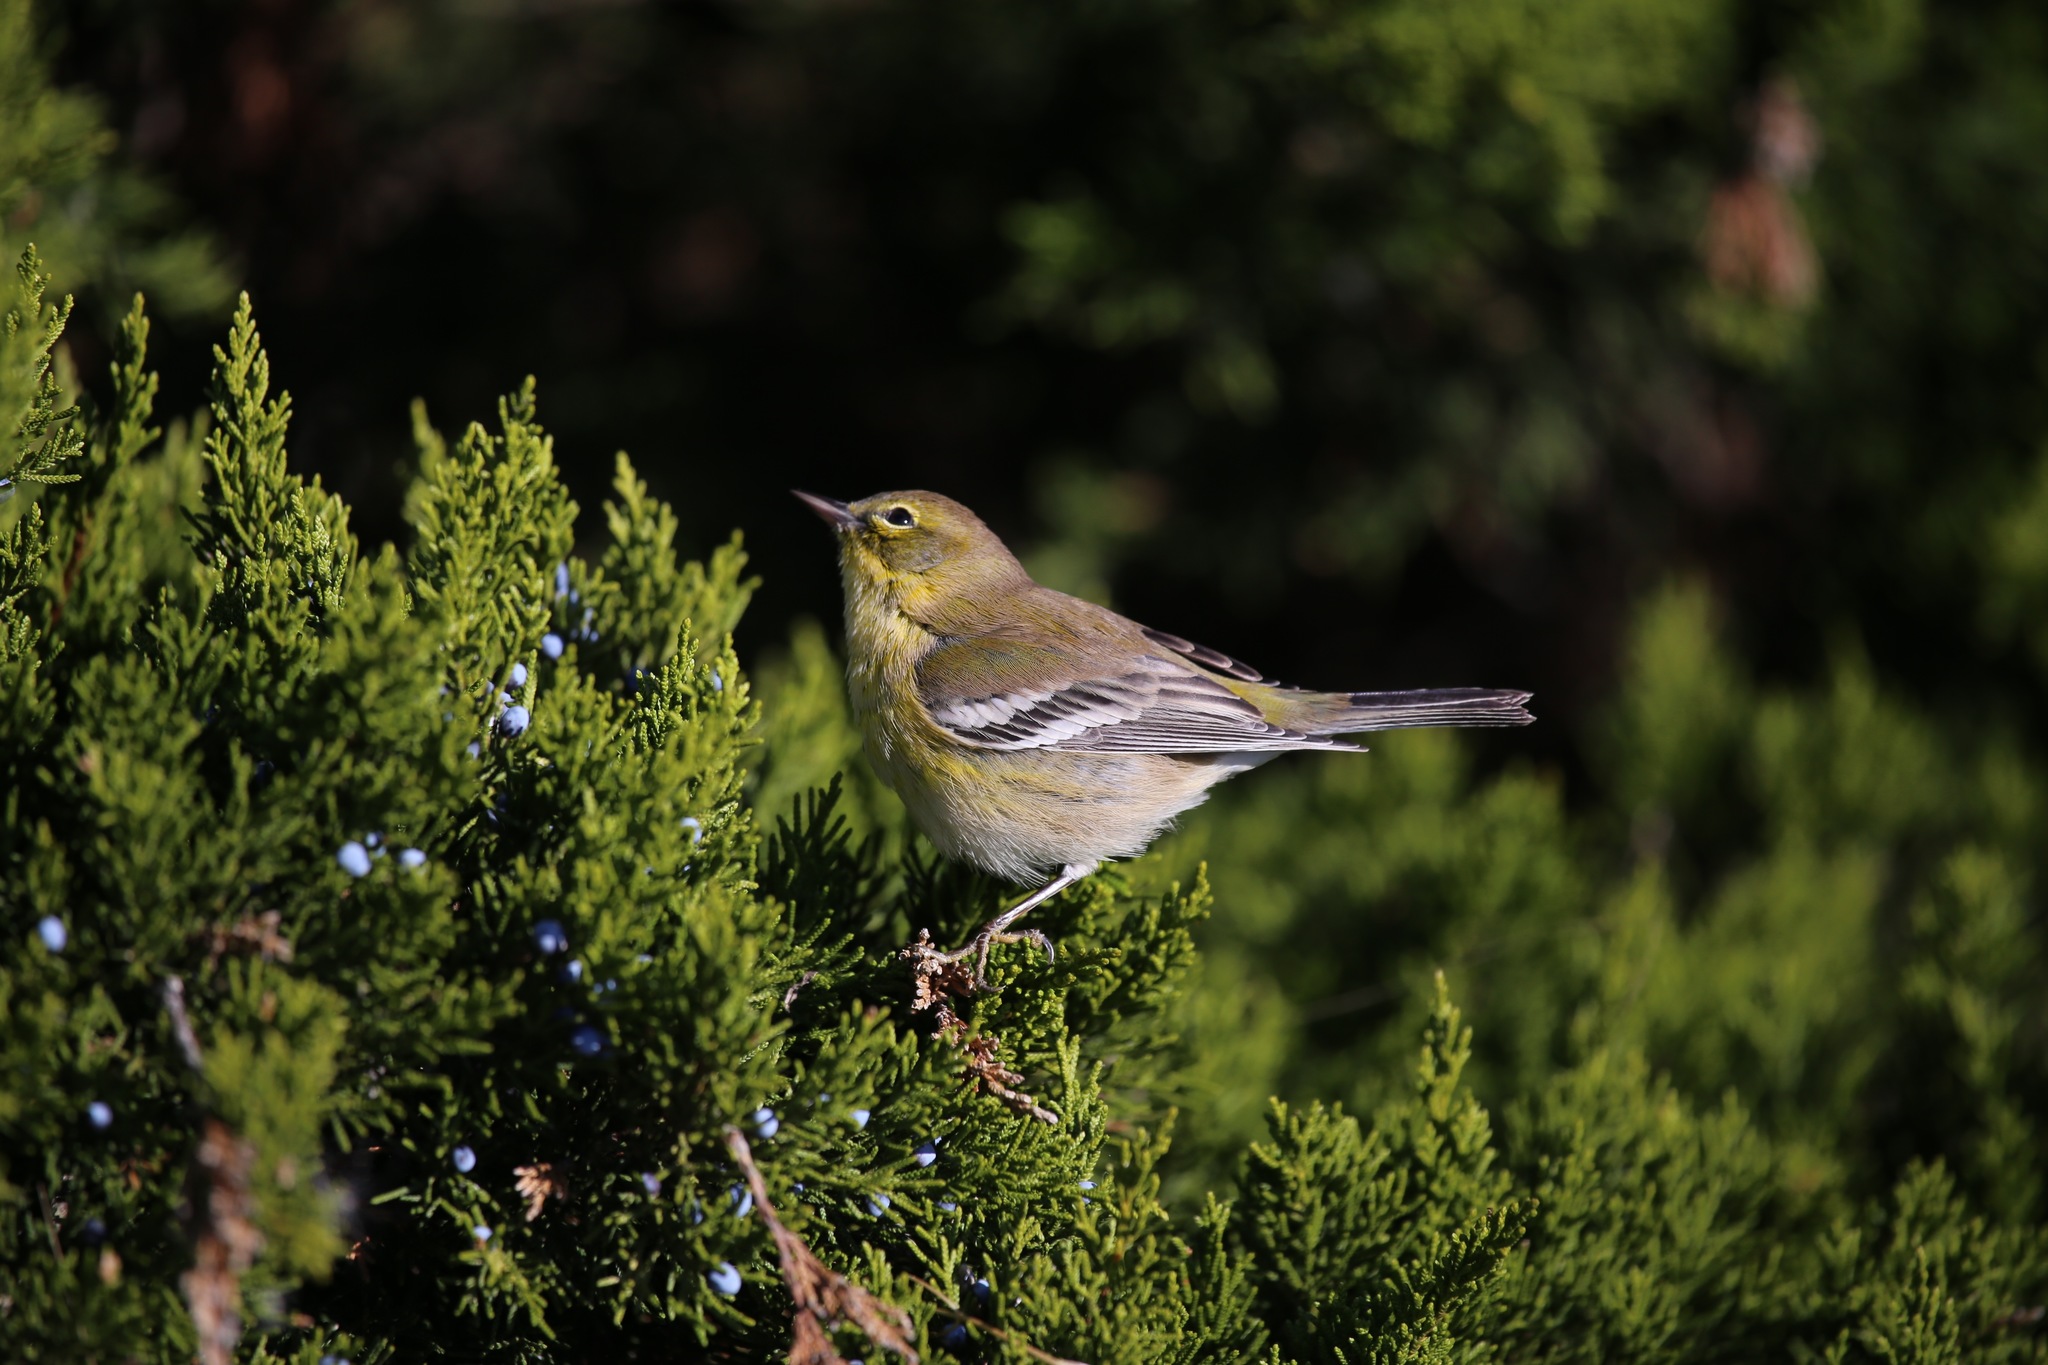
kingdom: Animalia
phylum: Chordata
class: Aves
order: Passeriformes
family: Parulidae
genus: Setophaga
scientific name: Setophaga pinus
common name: Pine warbler
